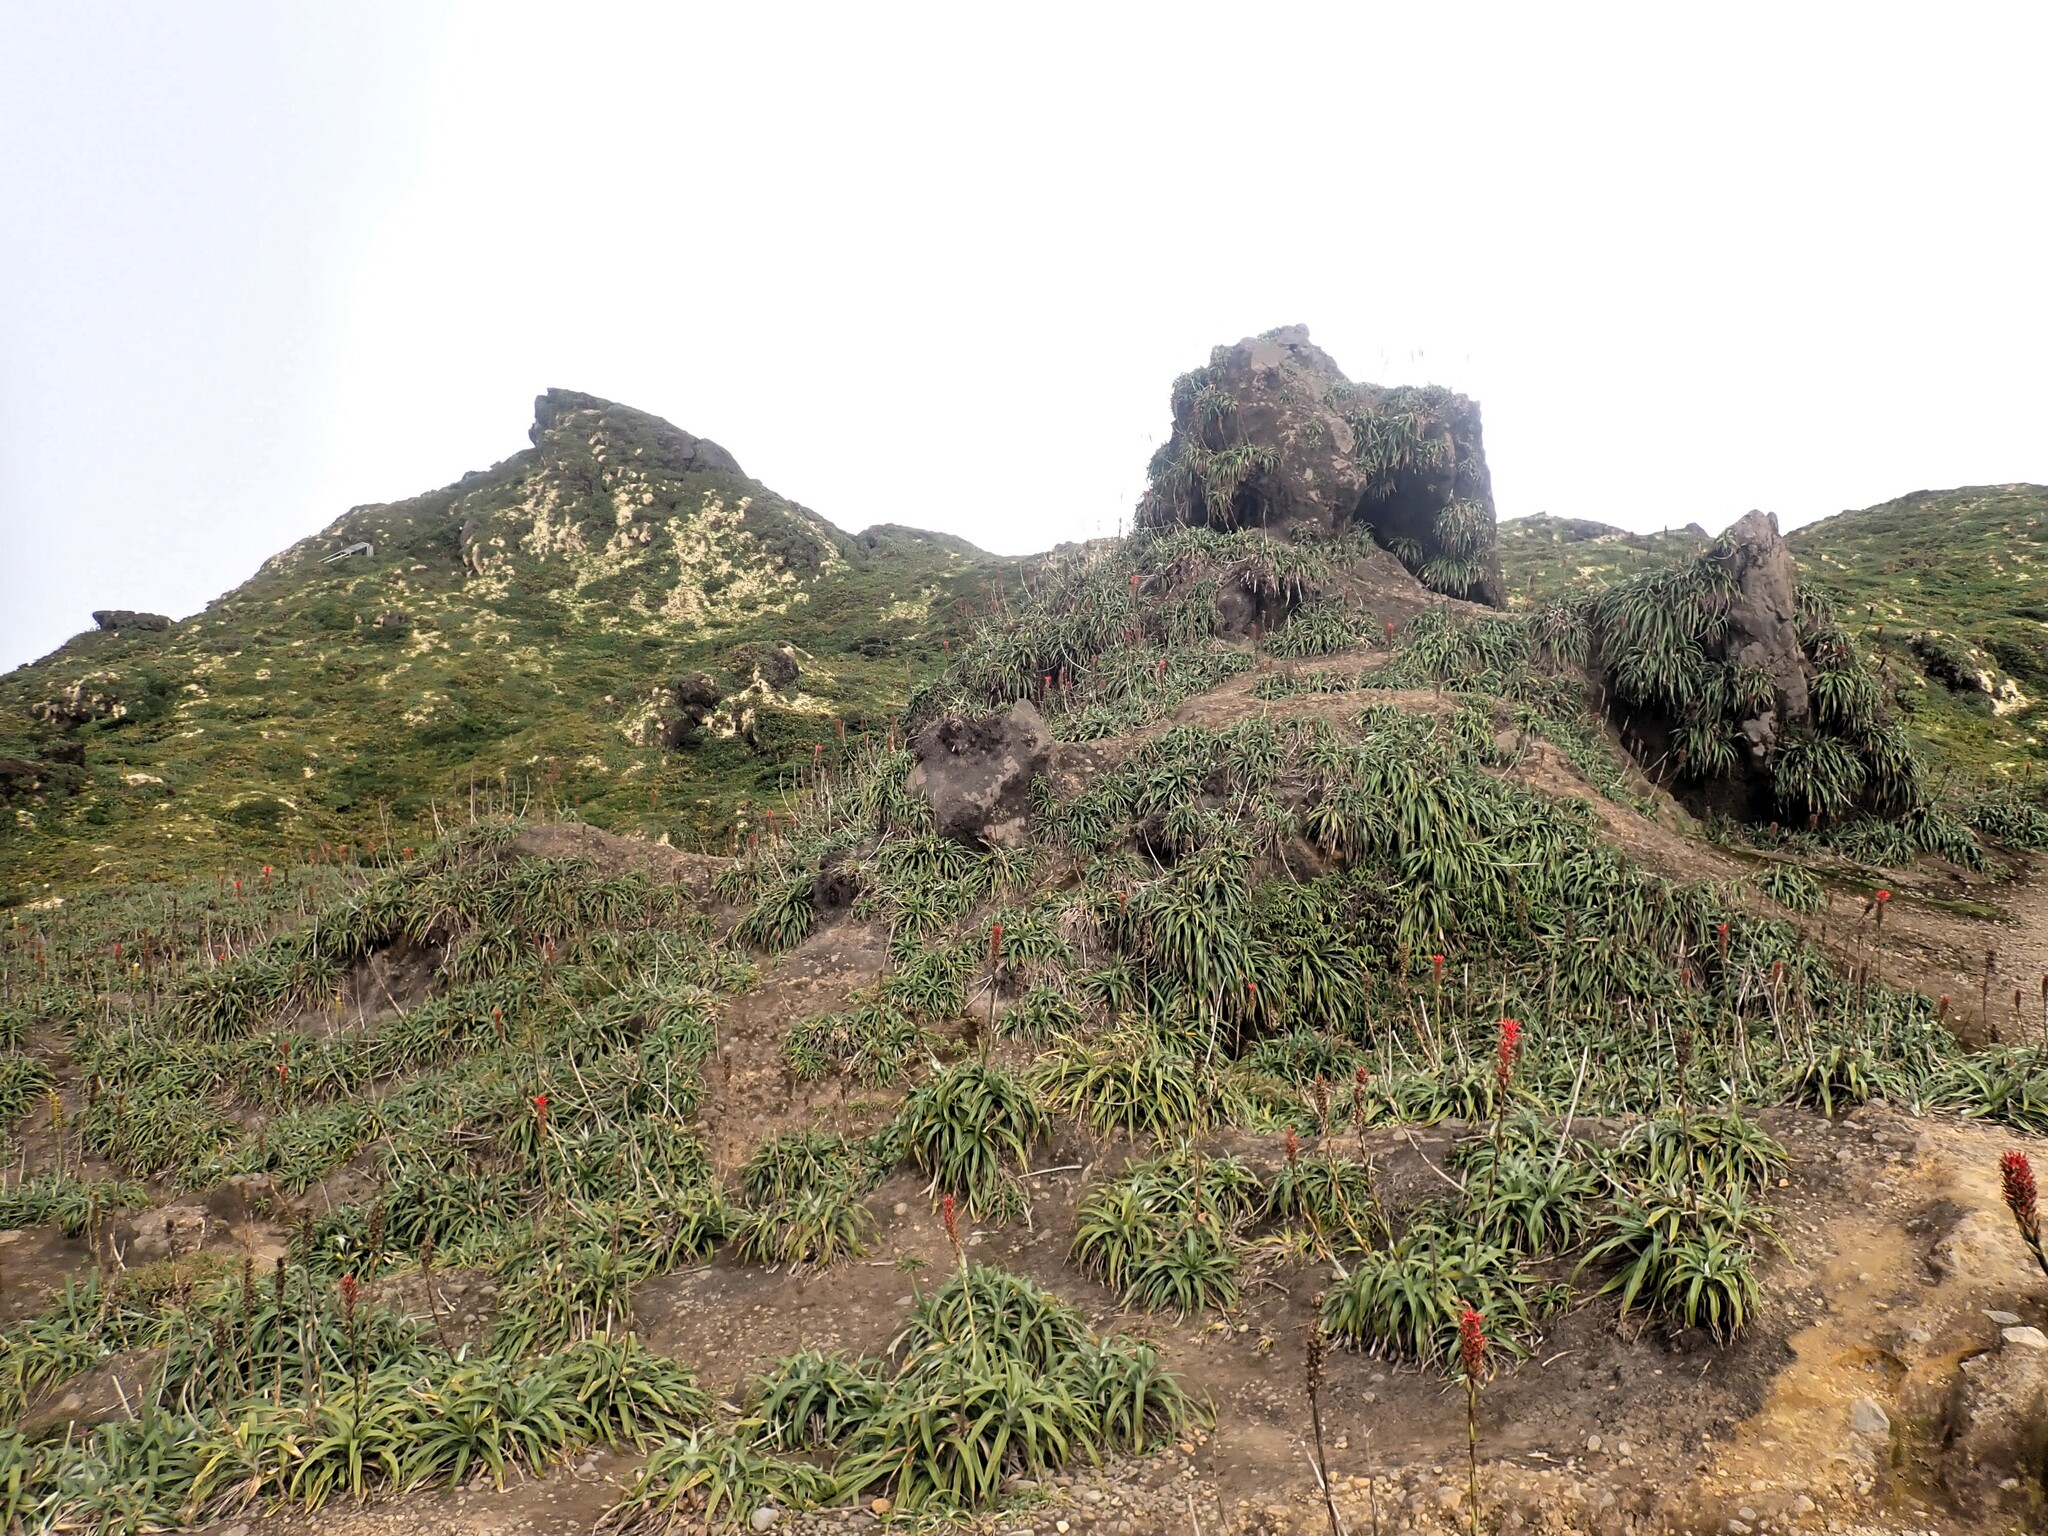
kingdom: Plantae
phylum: Tracheophyta
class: Liliopsida
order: Poales
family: Bromeliaceae
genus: Pitcairnia
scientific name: Pitcairnia bifrons
